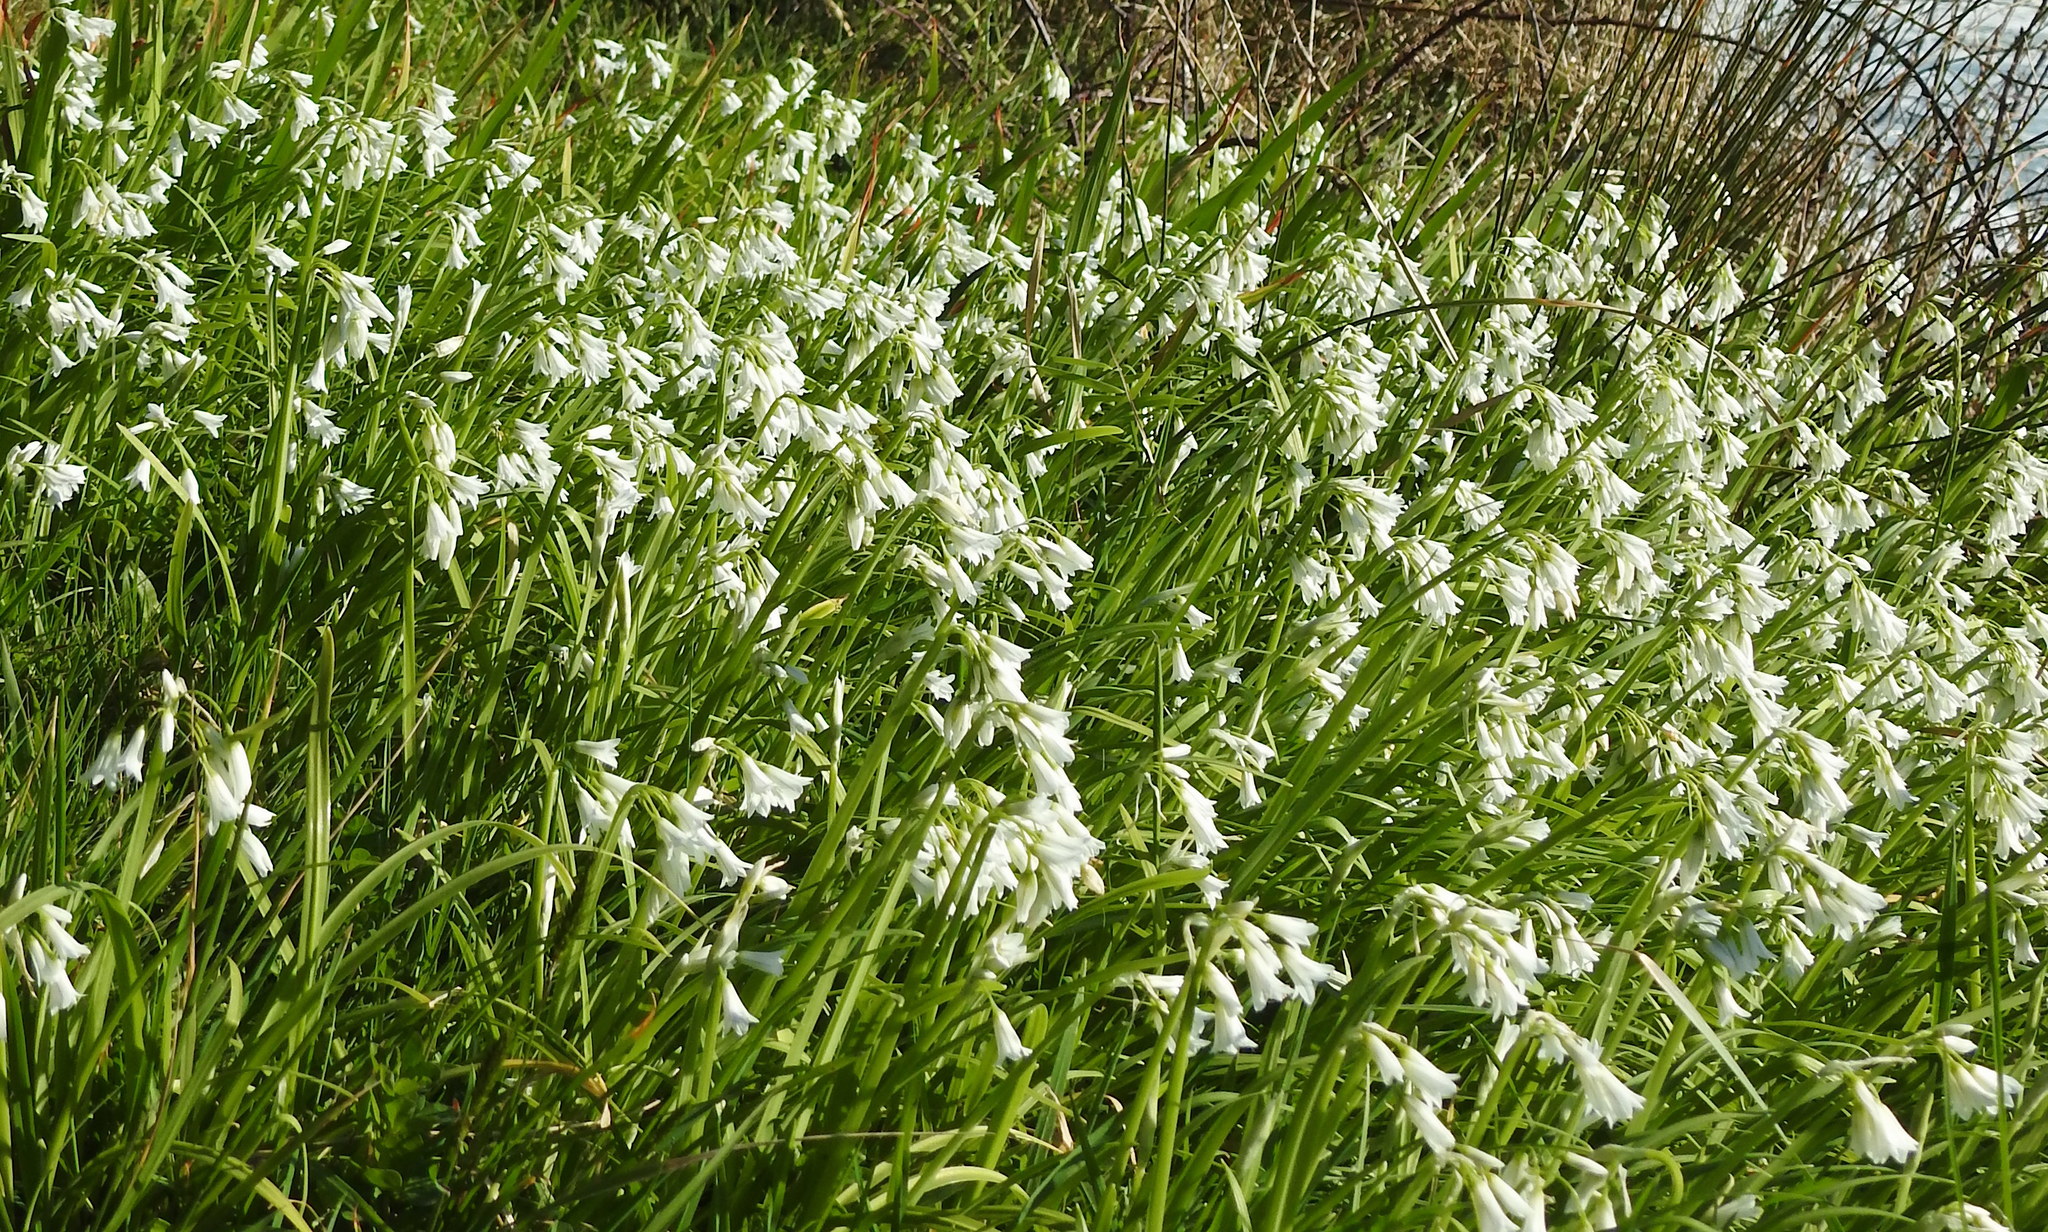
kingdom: Plantae
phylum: Tracheophyta
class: Liliopsida
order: Asparagales
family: Amaryllidaceae
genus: Allium
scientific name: Allium triquetrum
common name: Three-cornered garlic
